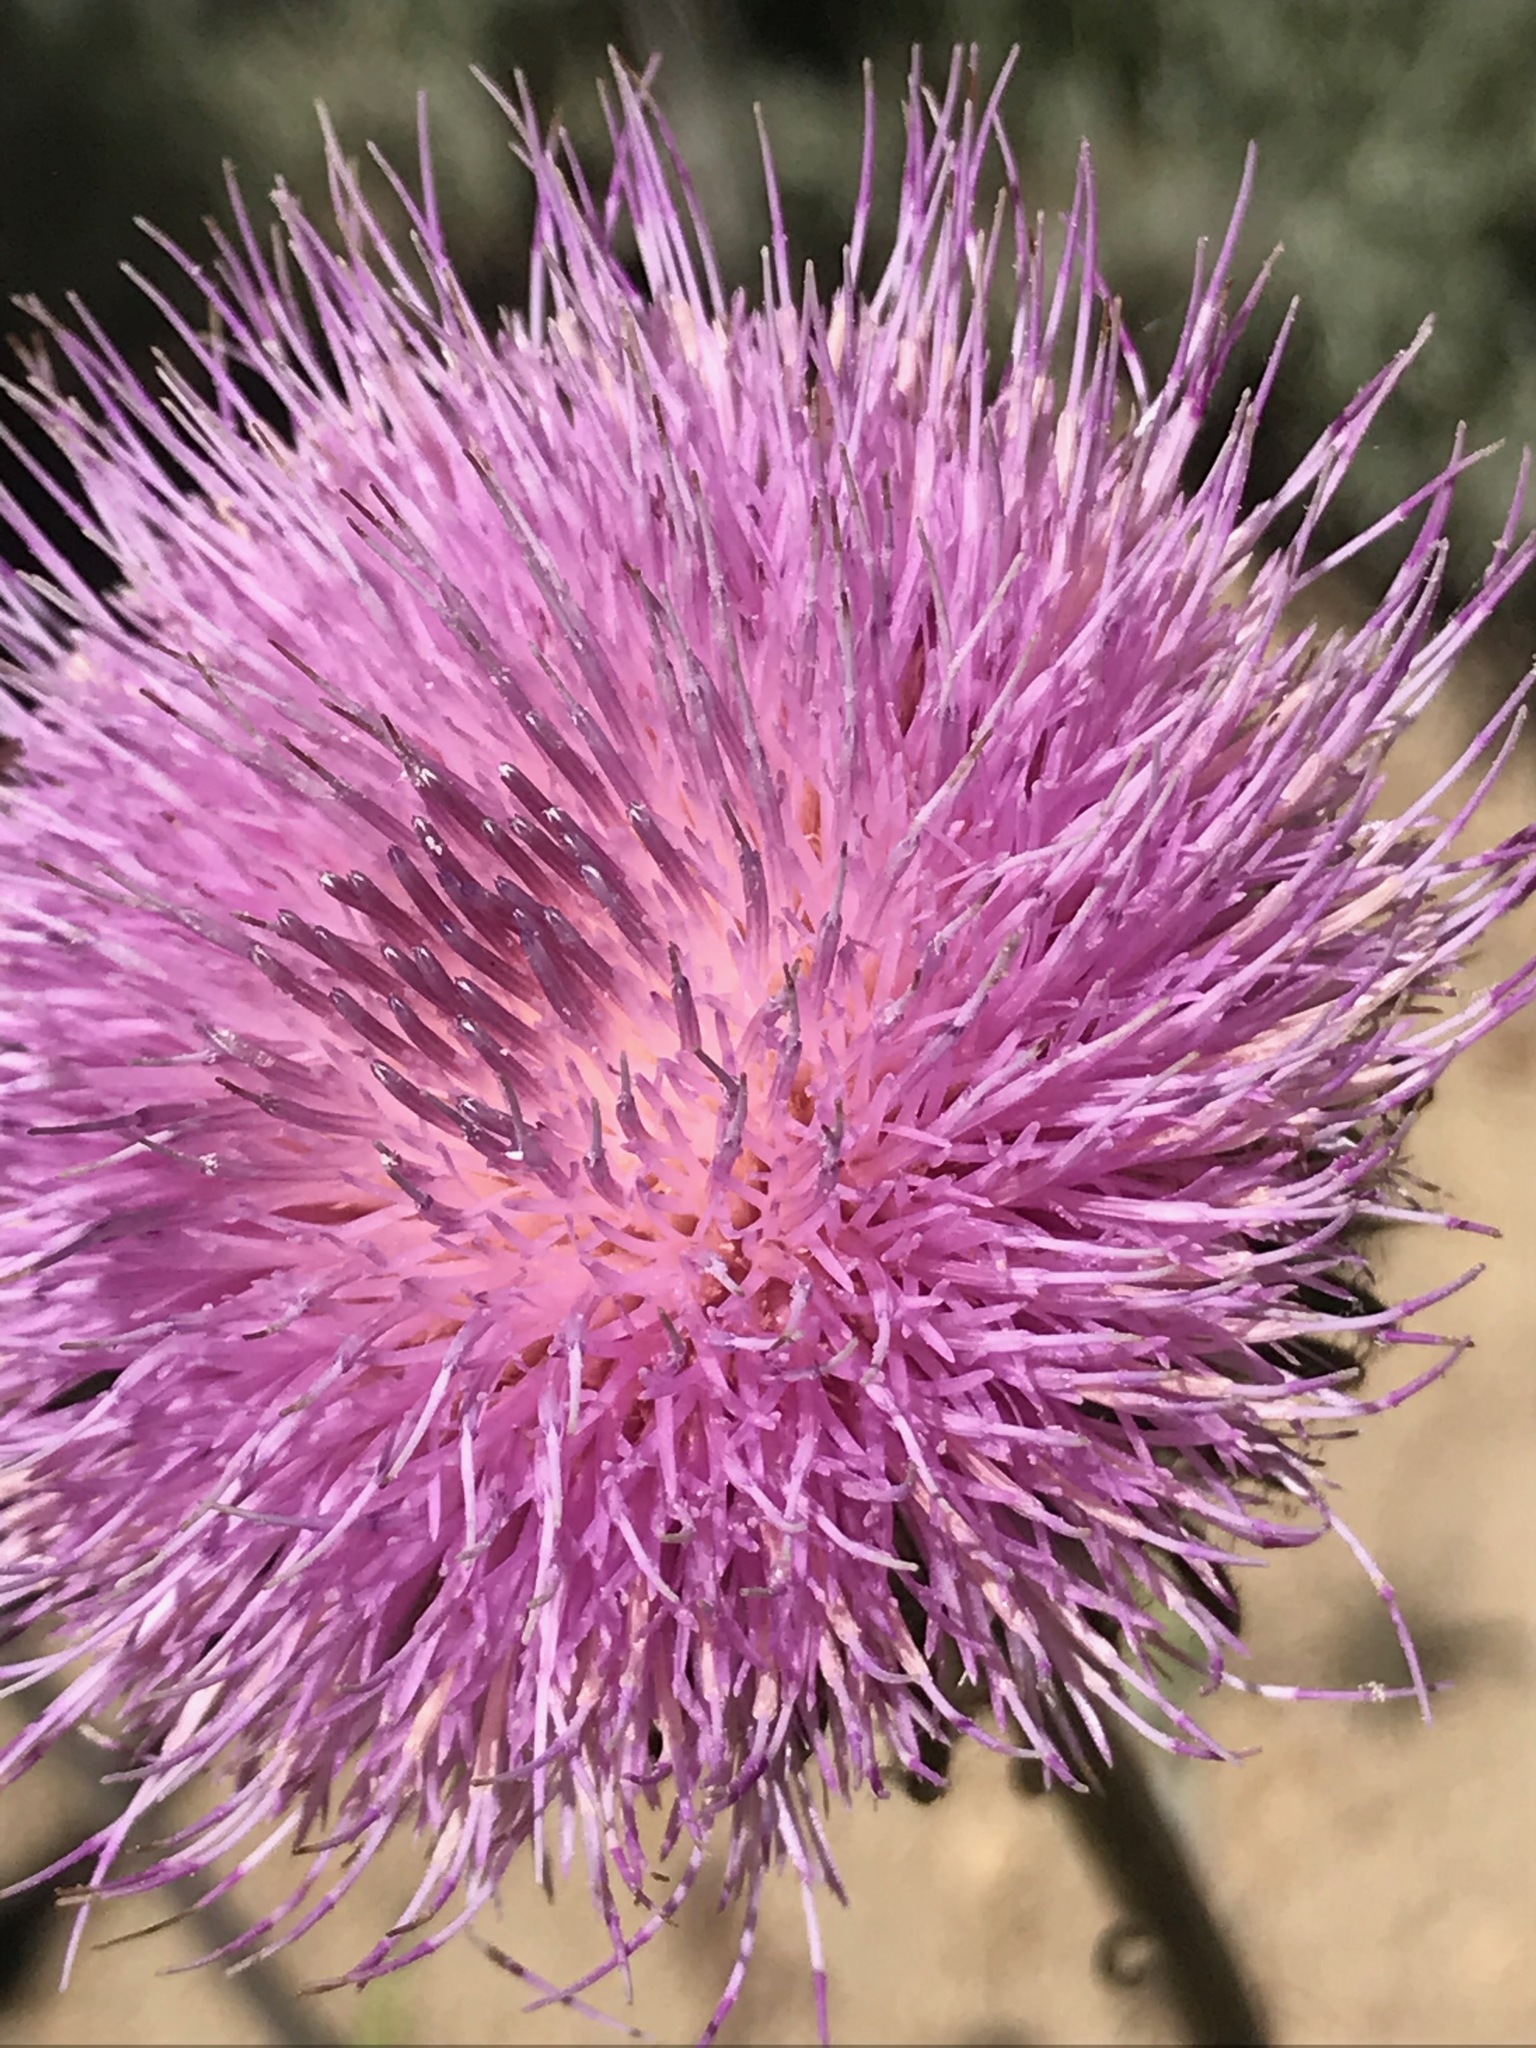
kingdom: Plantae
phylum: Tracheophyta
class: Magnoliopsida
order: Asterales
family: Asteraceae
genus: Cirsium
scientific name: Cirsium occidentale
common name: Western thistle
